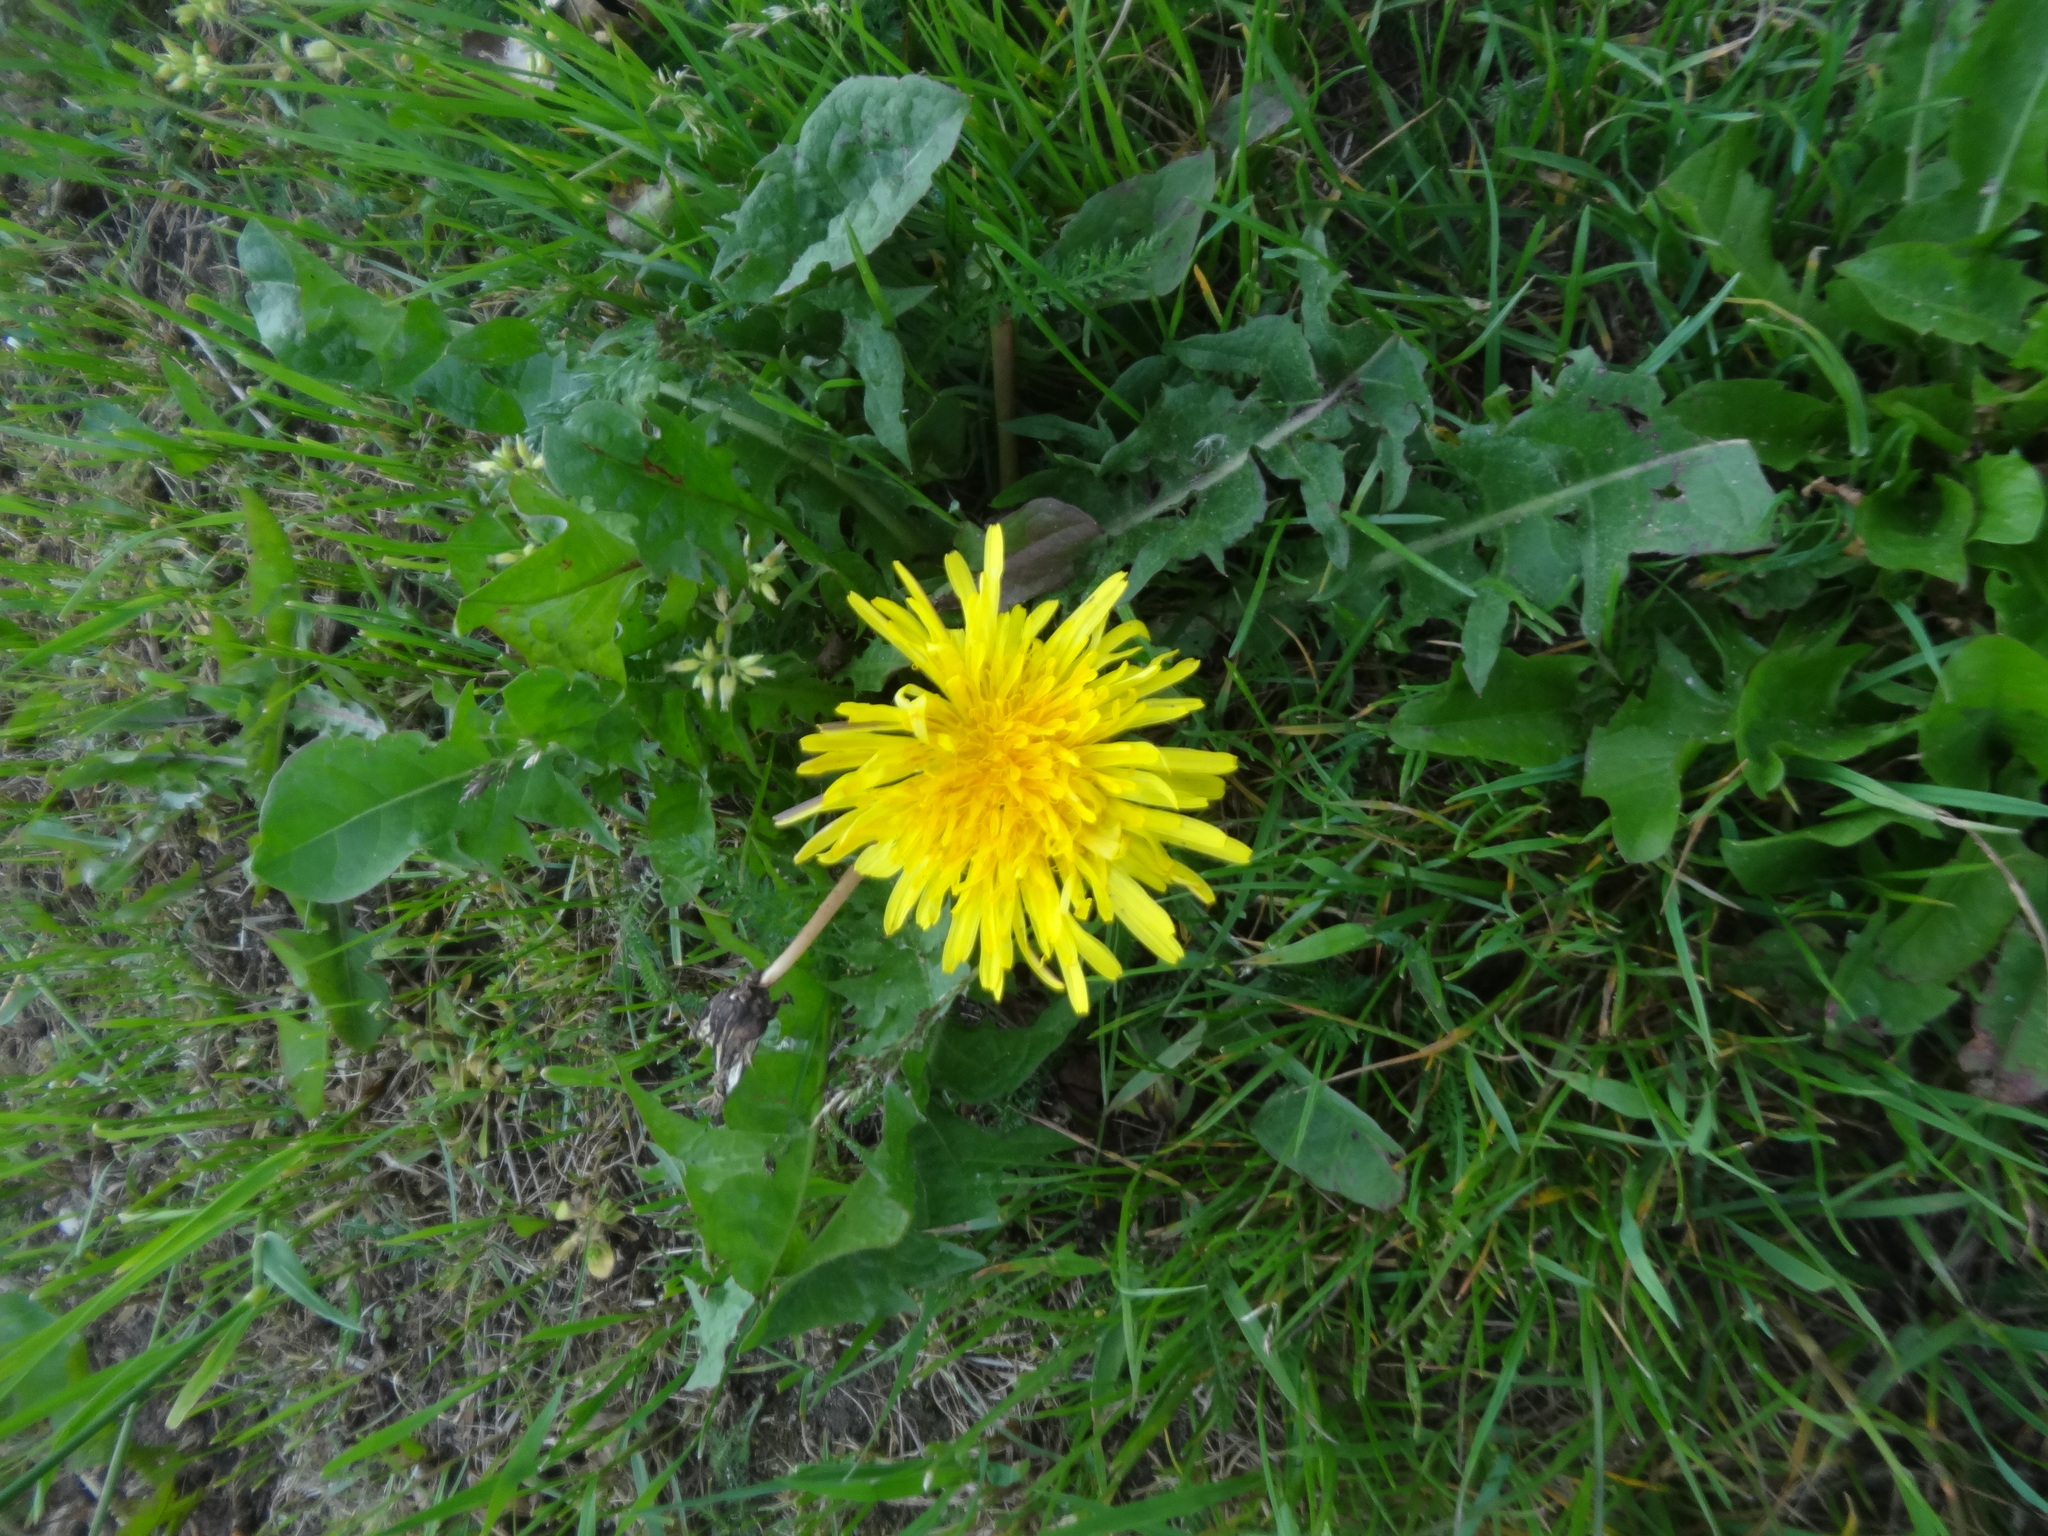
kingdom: Plantae
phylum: Tracheophyta
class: Magnoliopsida
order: Asterales
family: Asteraceae
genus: Taraxacum
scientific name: Taraxacum officinale
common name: Common dandelion
